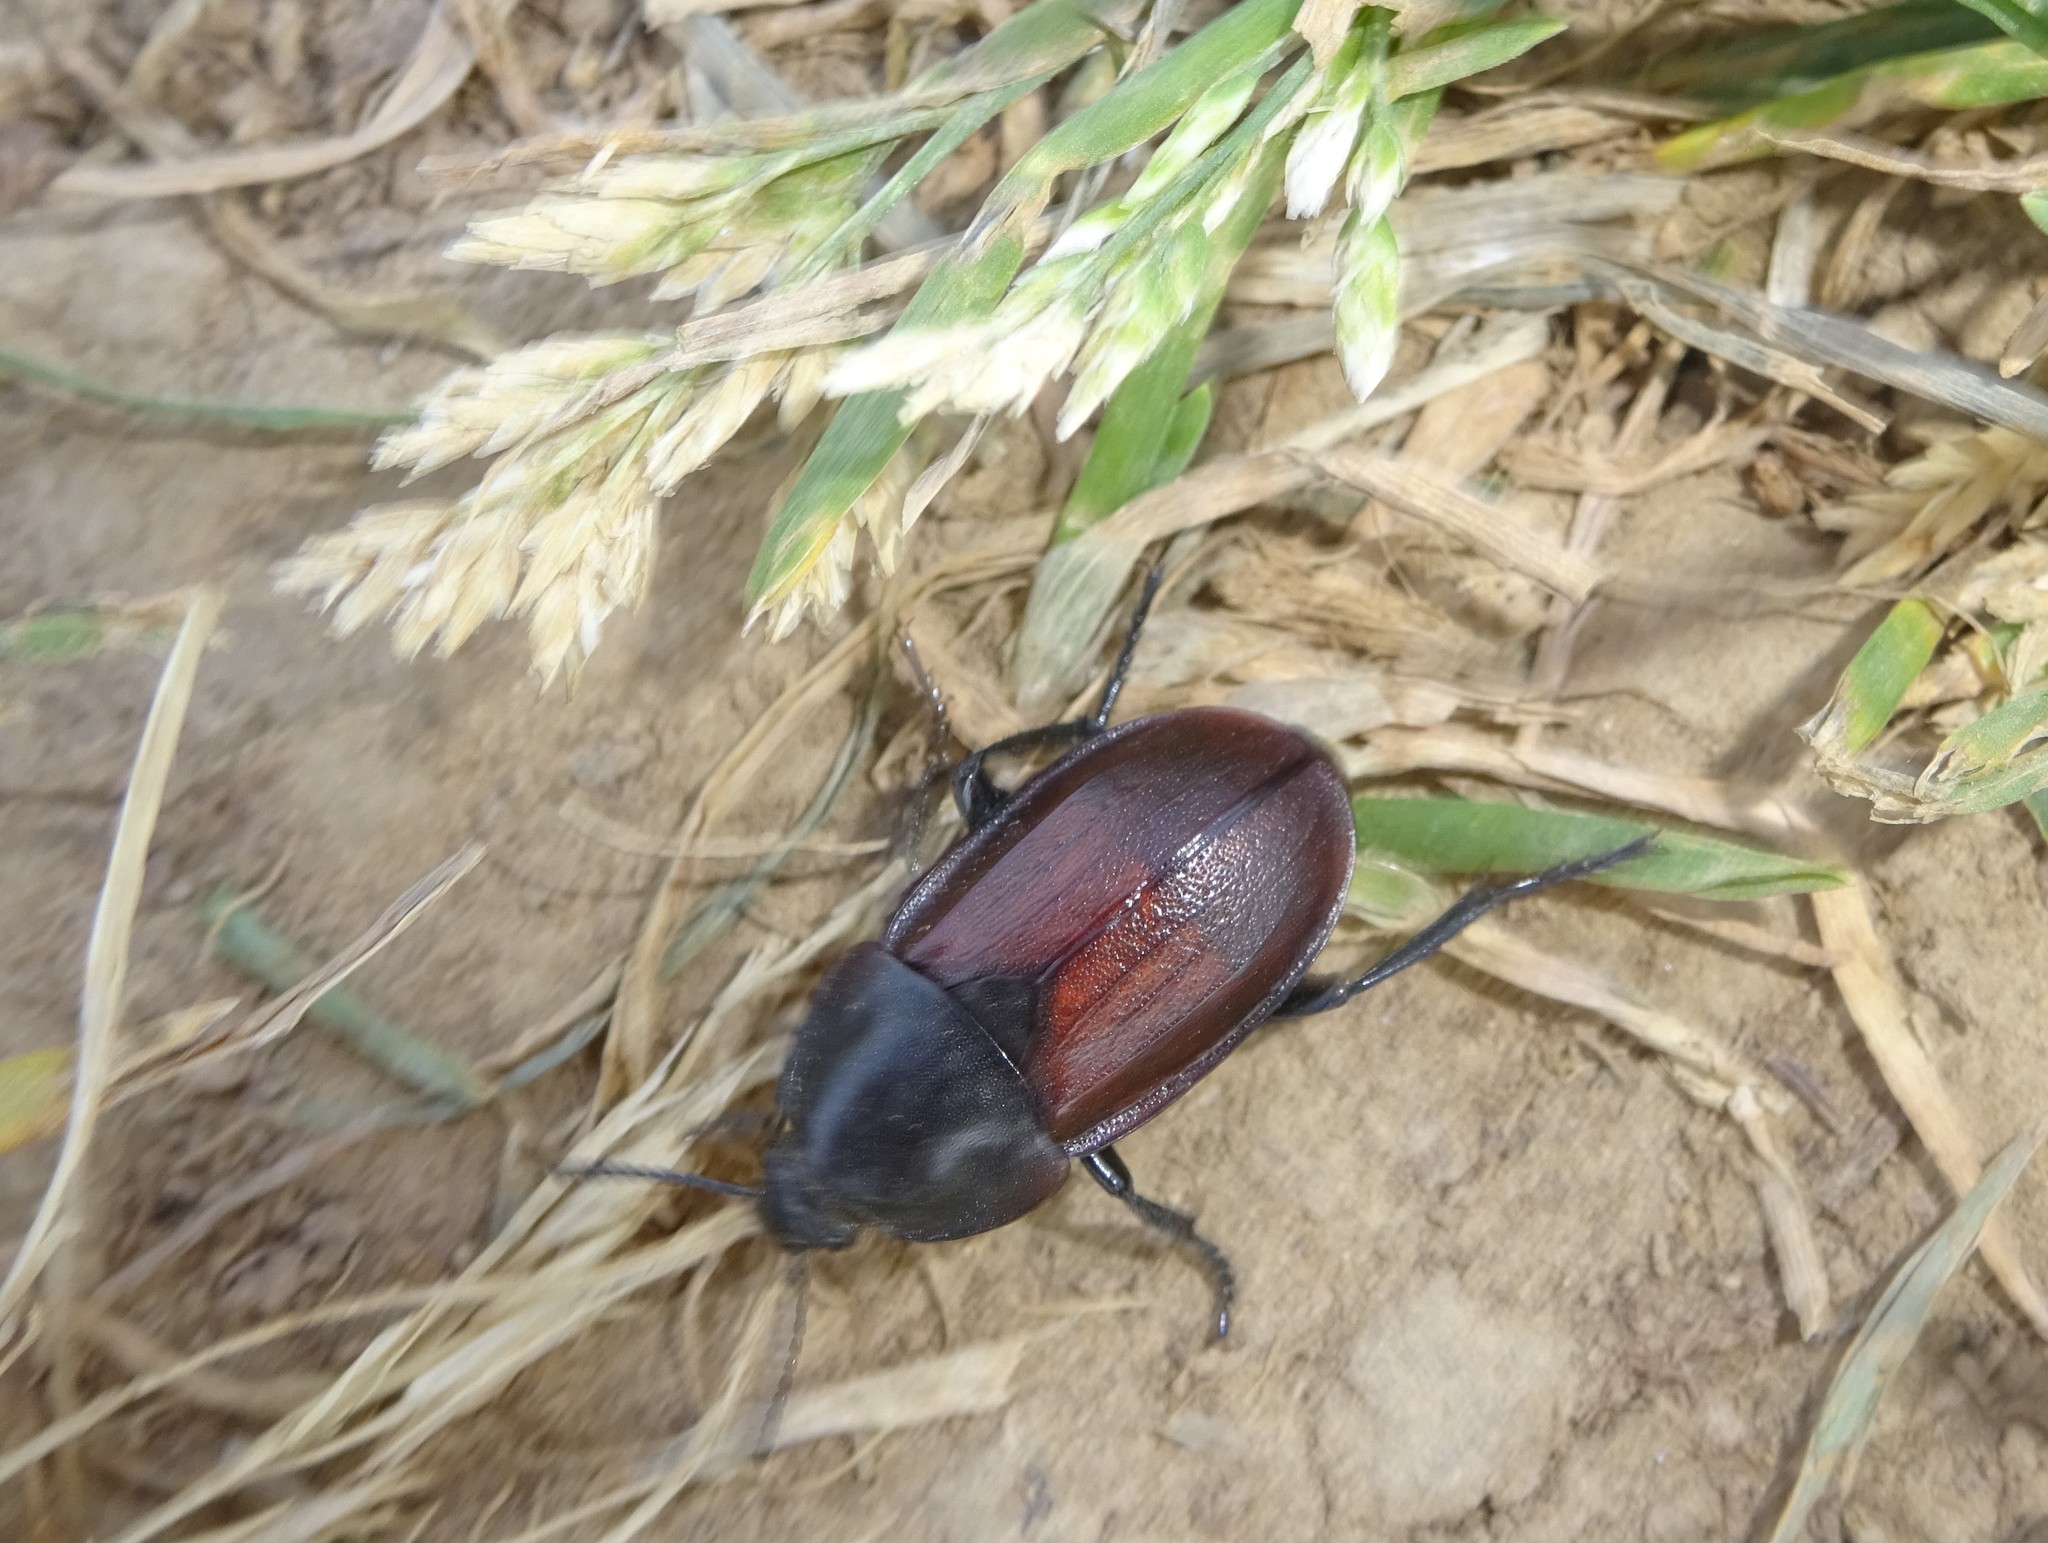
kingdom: Animalia
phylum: Arthropoda
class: Insecta
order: Coleoptera
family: Staphylinidae
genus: Silpha
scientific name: Silpha tyrolensis
